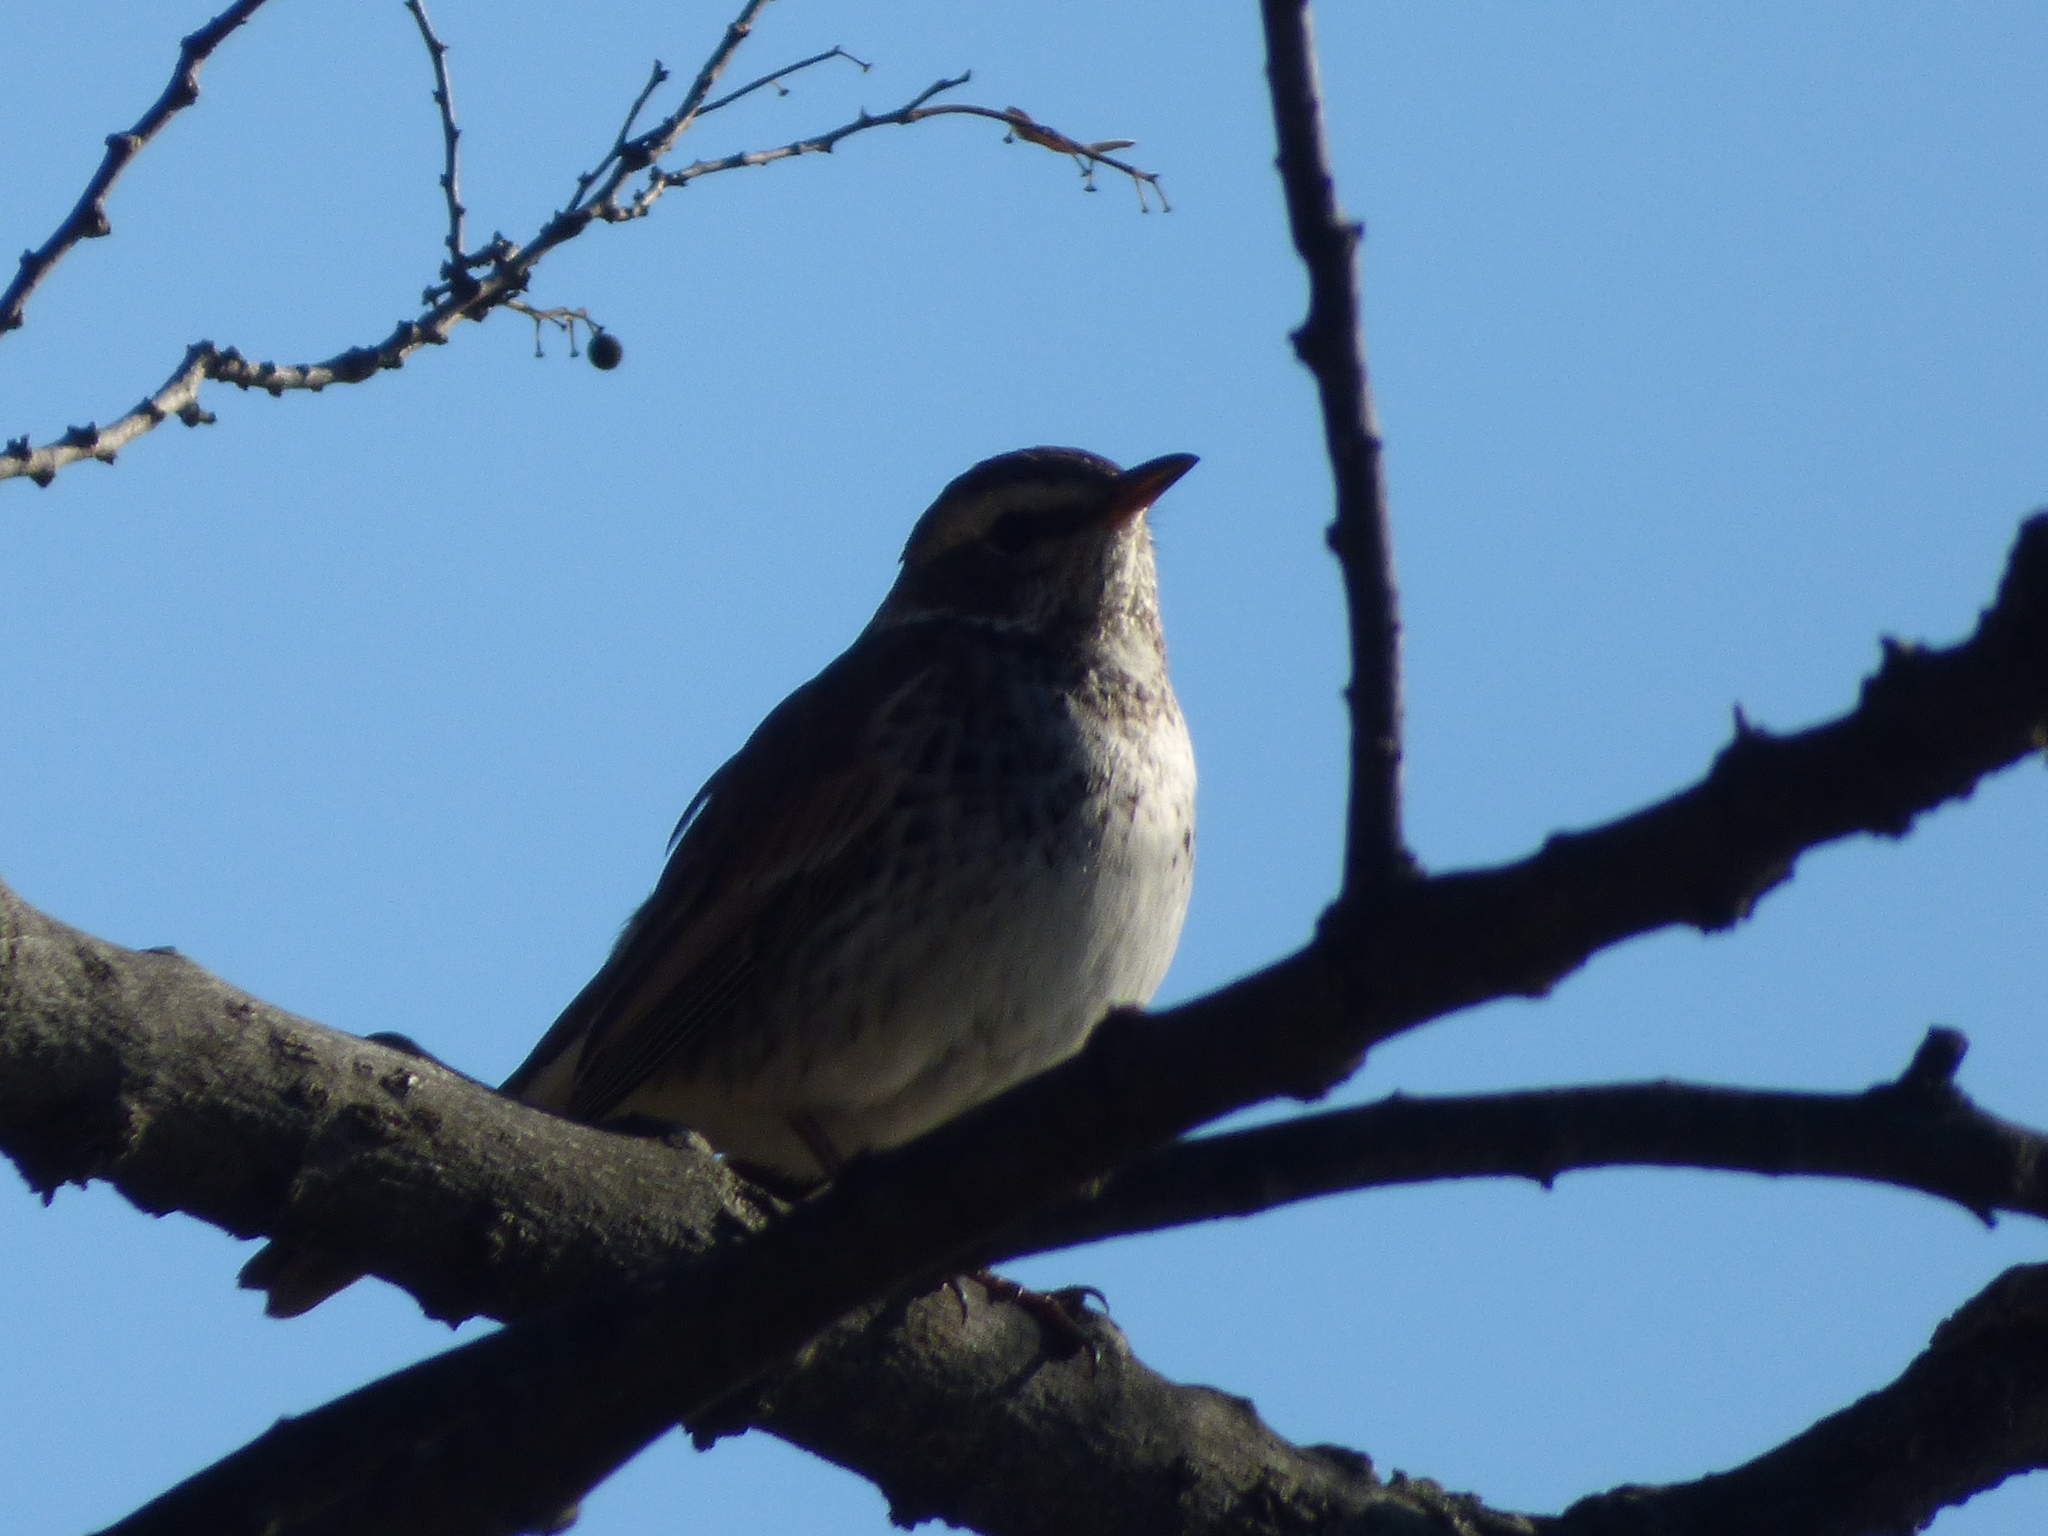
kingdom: Animalia
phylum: Chordata
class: Aves
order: Passeriformes
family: Turdidae
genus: Turdus
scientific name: Turdus eunomus
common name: Dusky thrush
